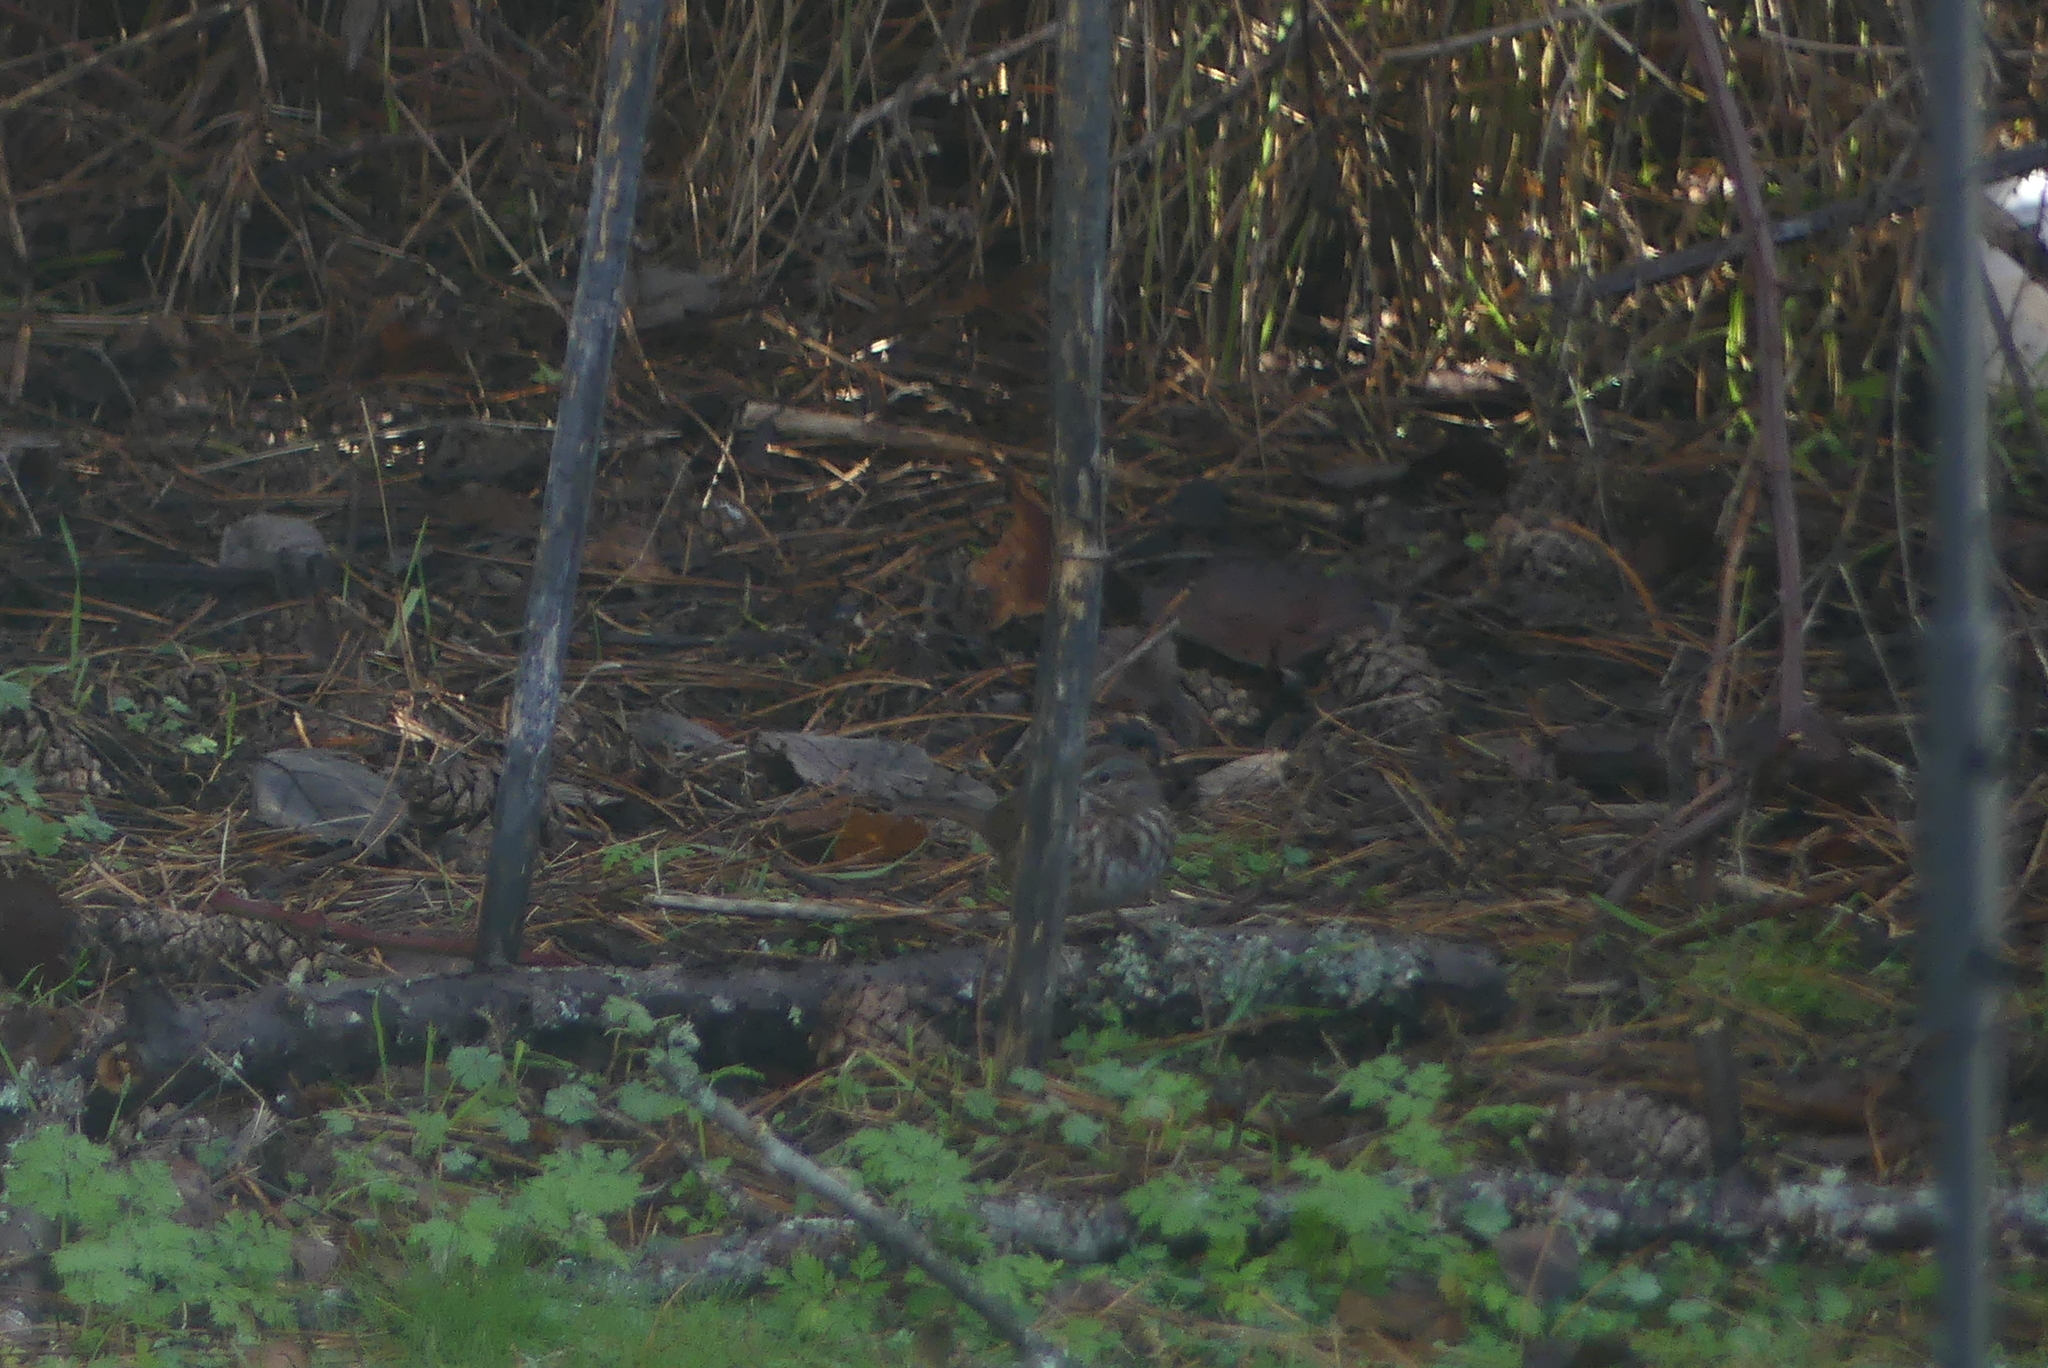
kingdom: Animalia
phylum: Chordata
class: Aves
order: Passeriformes
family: Passerellidae
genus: Melospiza
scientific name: Melospiza melodia
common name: Song sparrow
